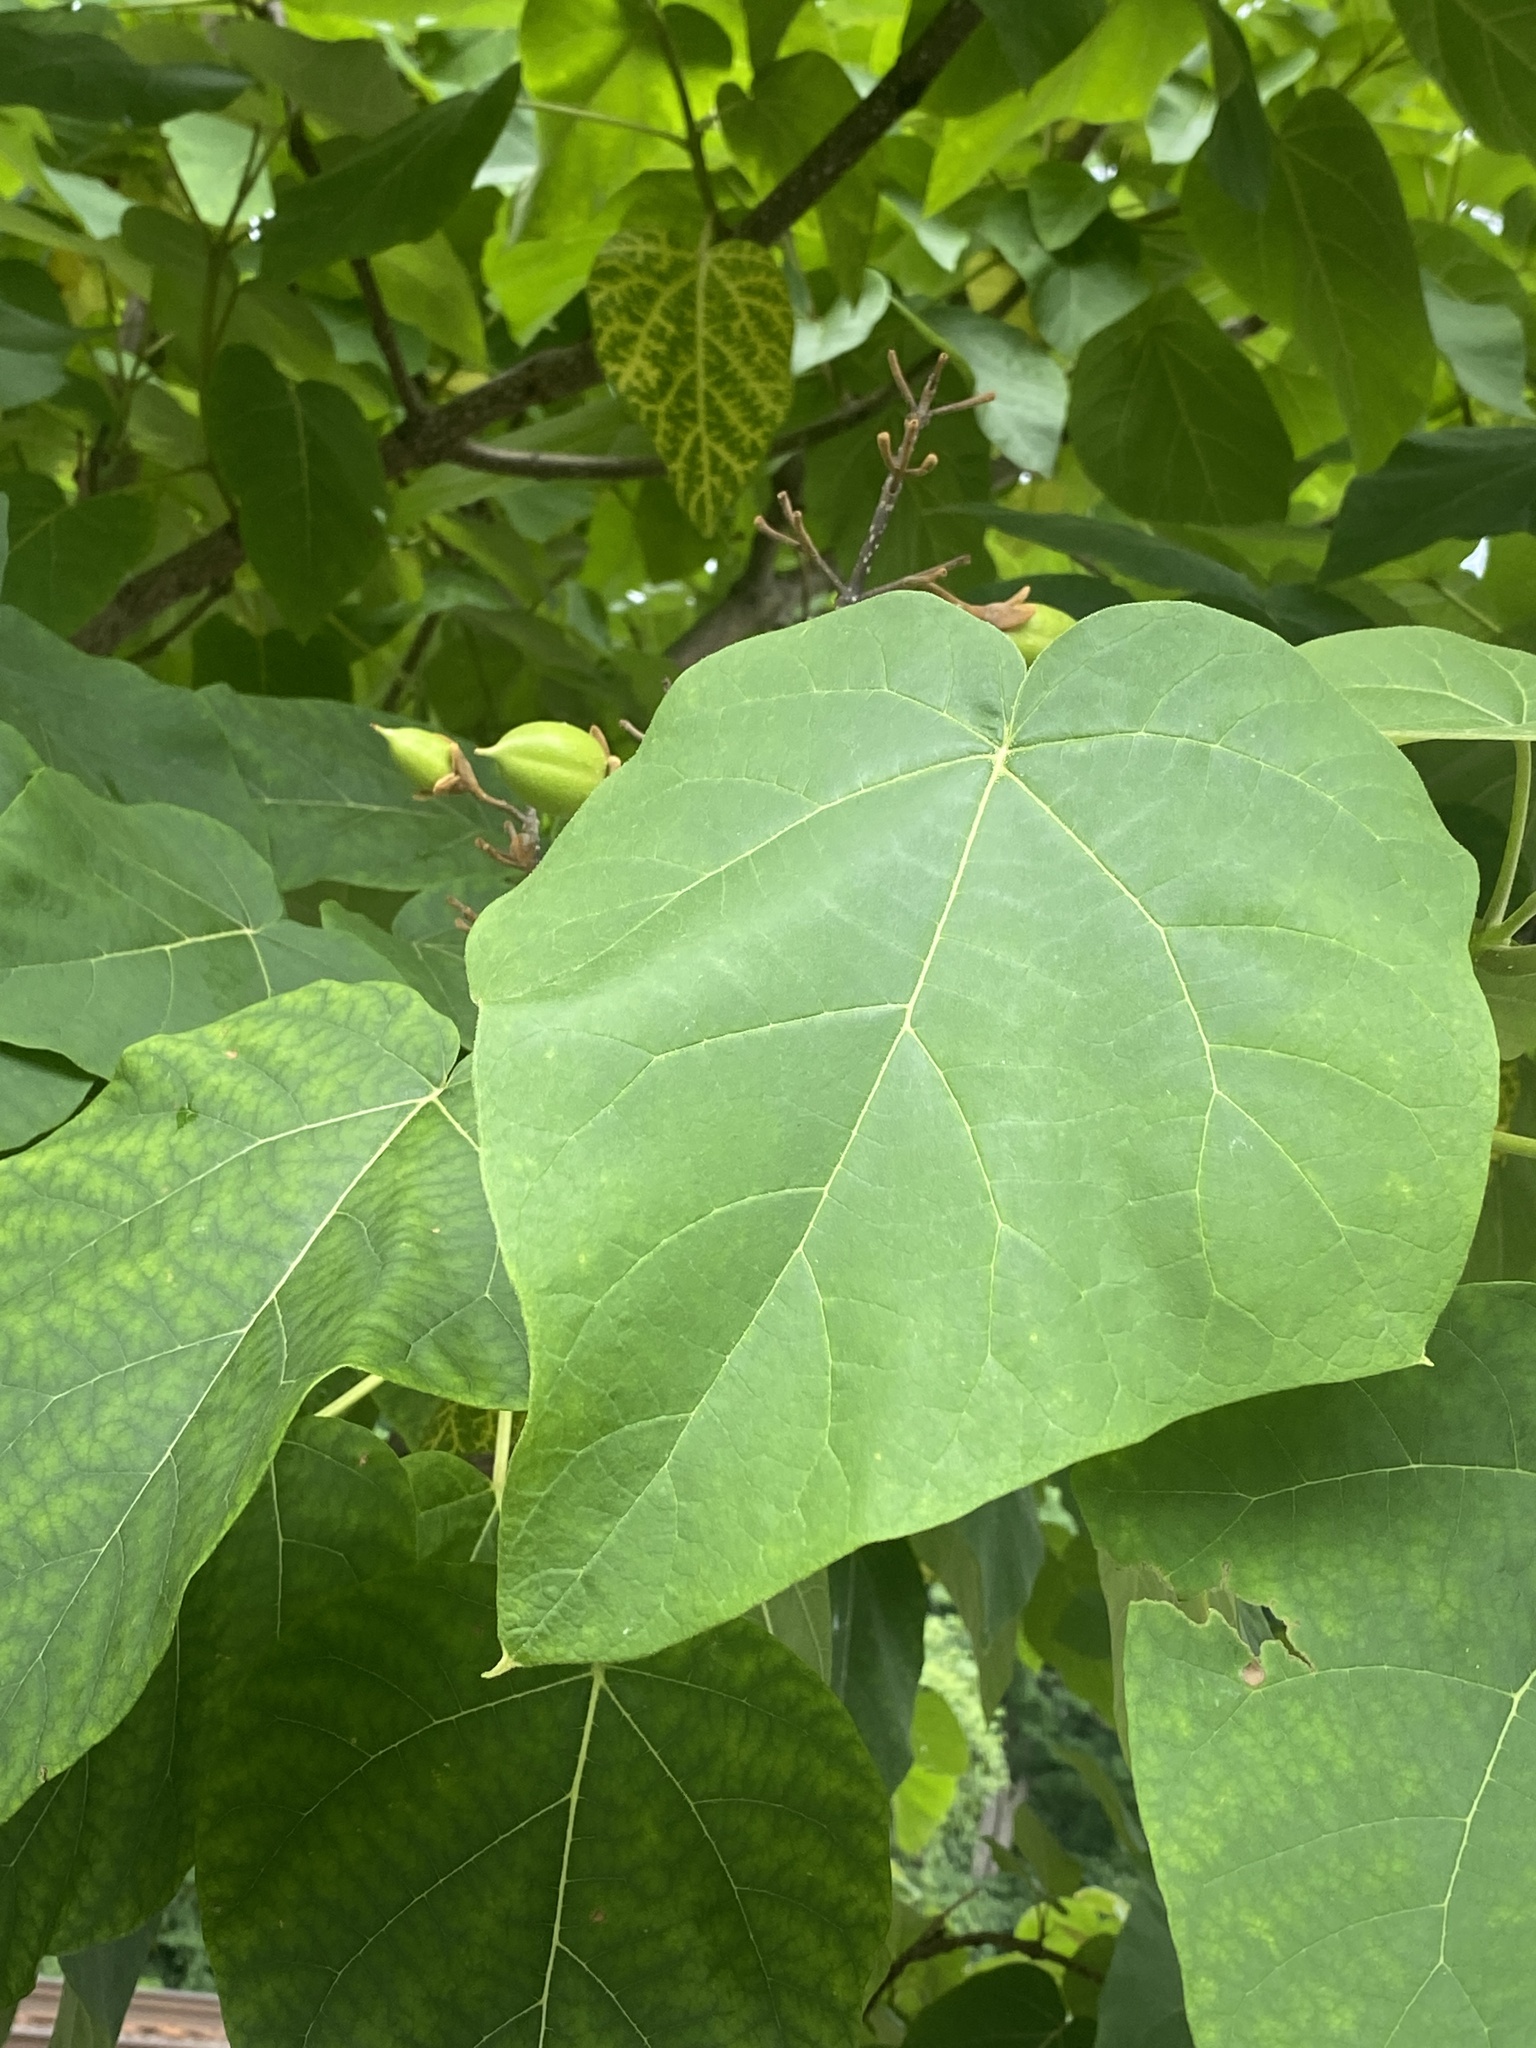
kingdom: Plantae
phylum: Tracheophyta
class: Magnoliopsida
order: Lamiales
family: Paulowniaceae
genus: Paulownia
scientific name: Paulownia tomentosa
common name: Foxglove-tree
